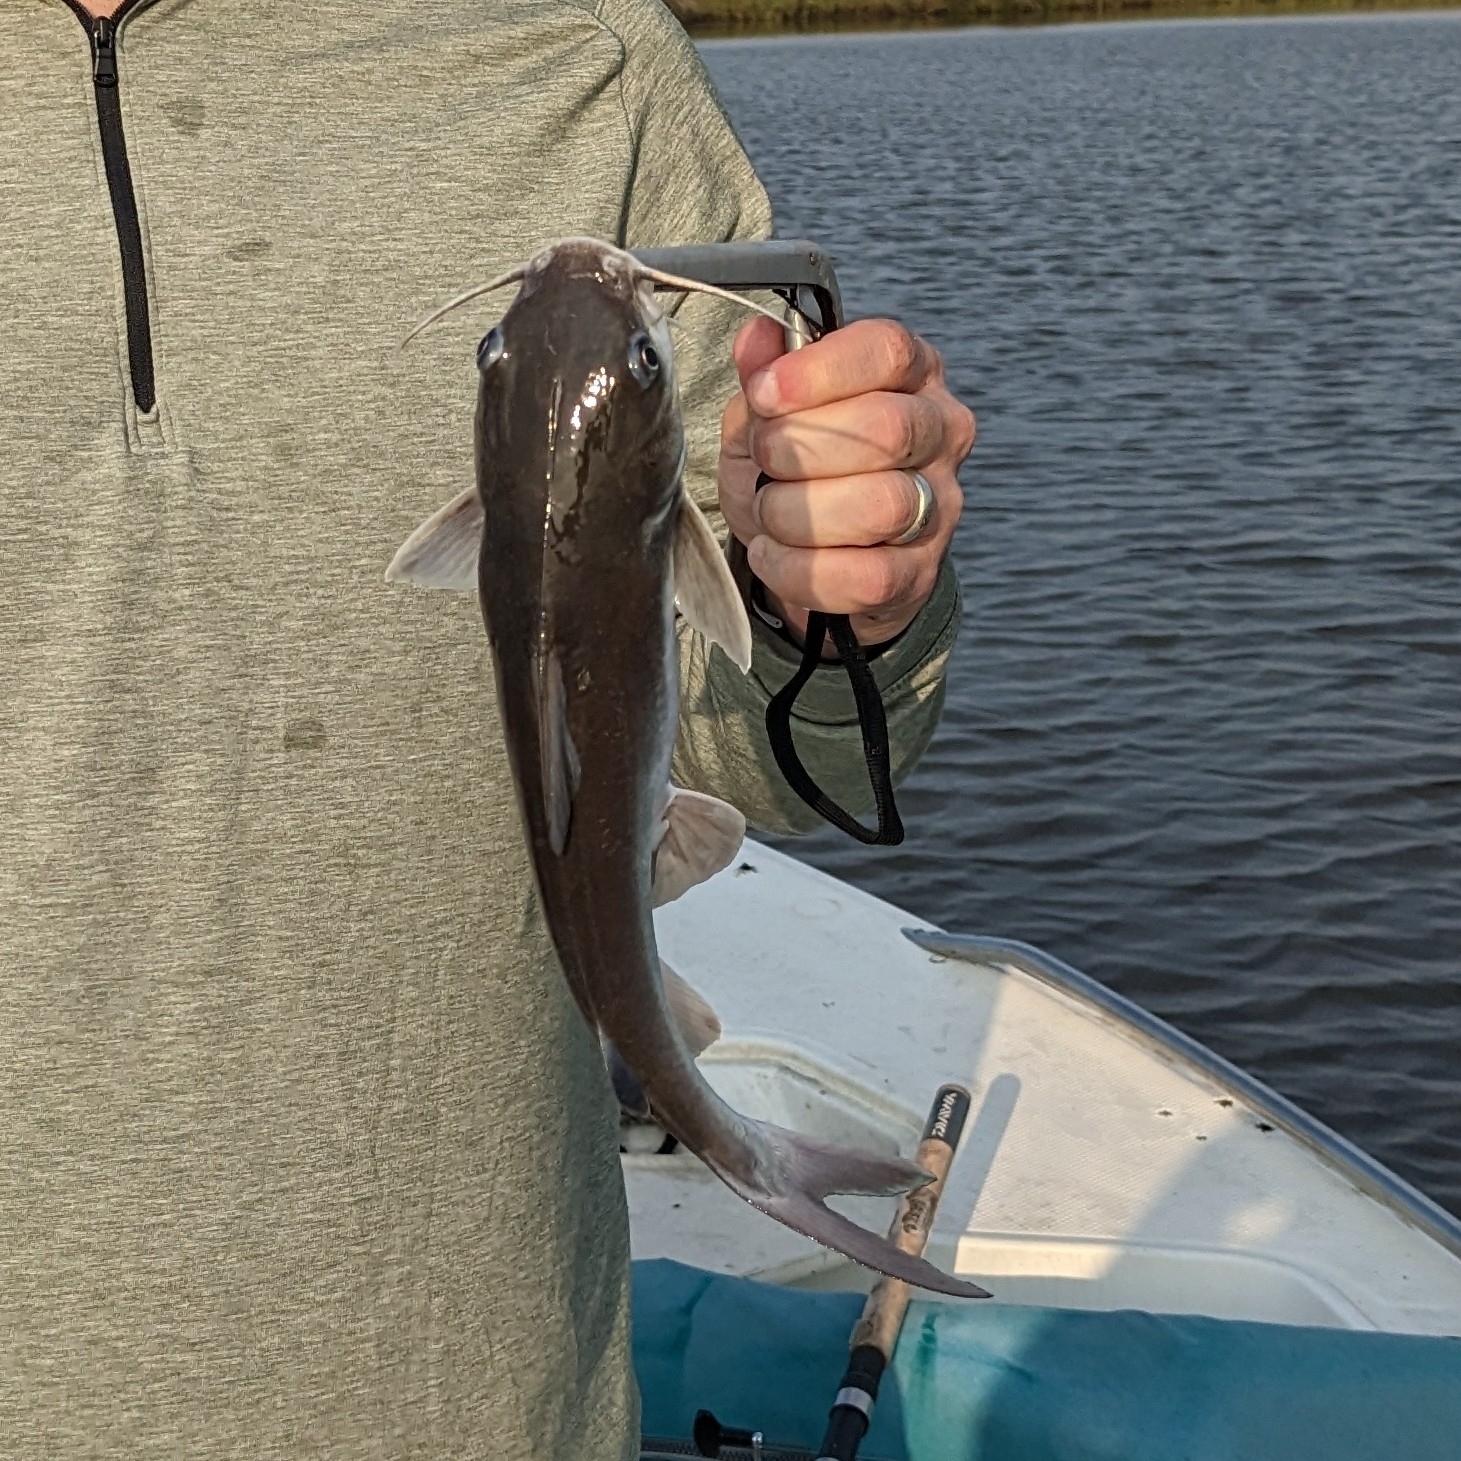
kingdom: Animalia
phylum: Chordata
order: Siluriformes
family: Ariidae
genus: Ariopsis
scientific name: Ariopsis felis
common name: Hardhead catfish
